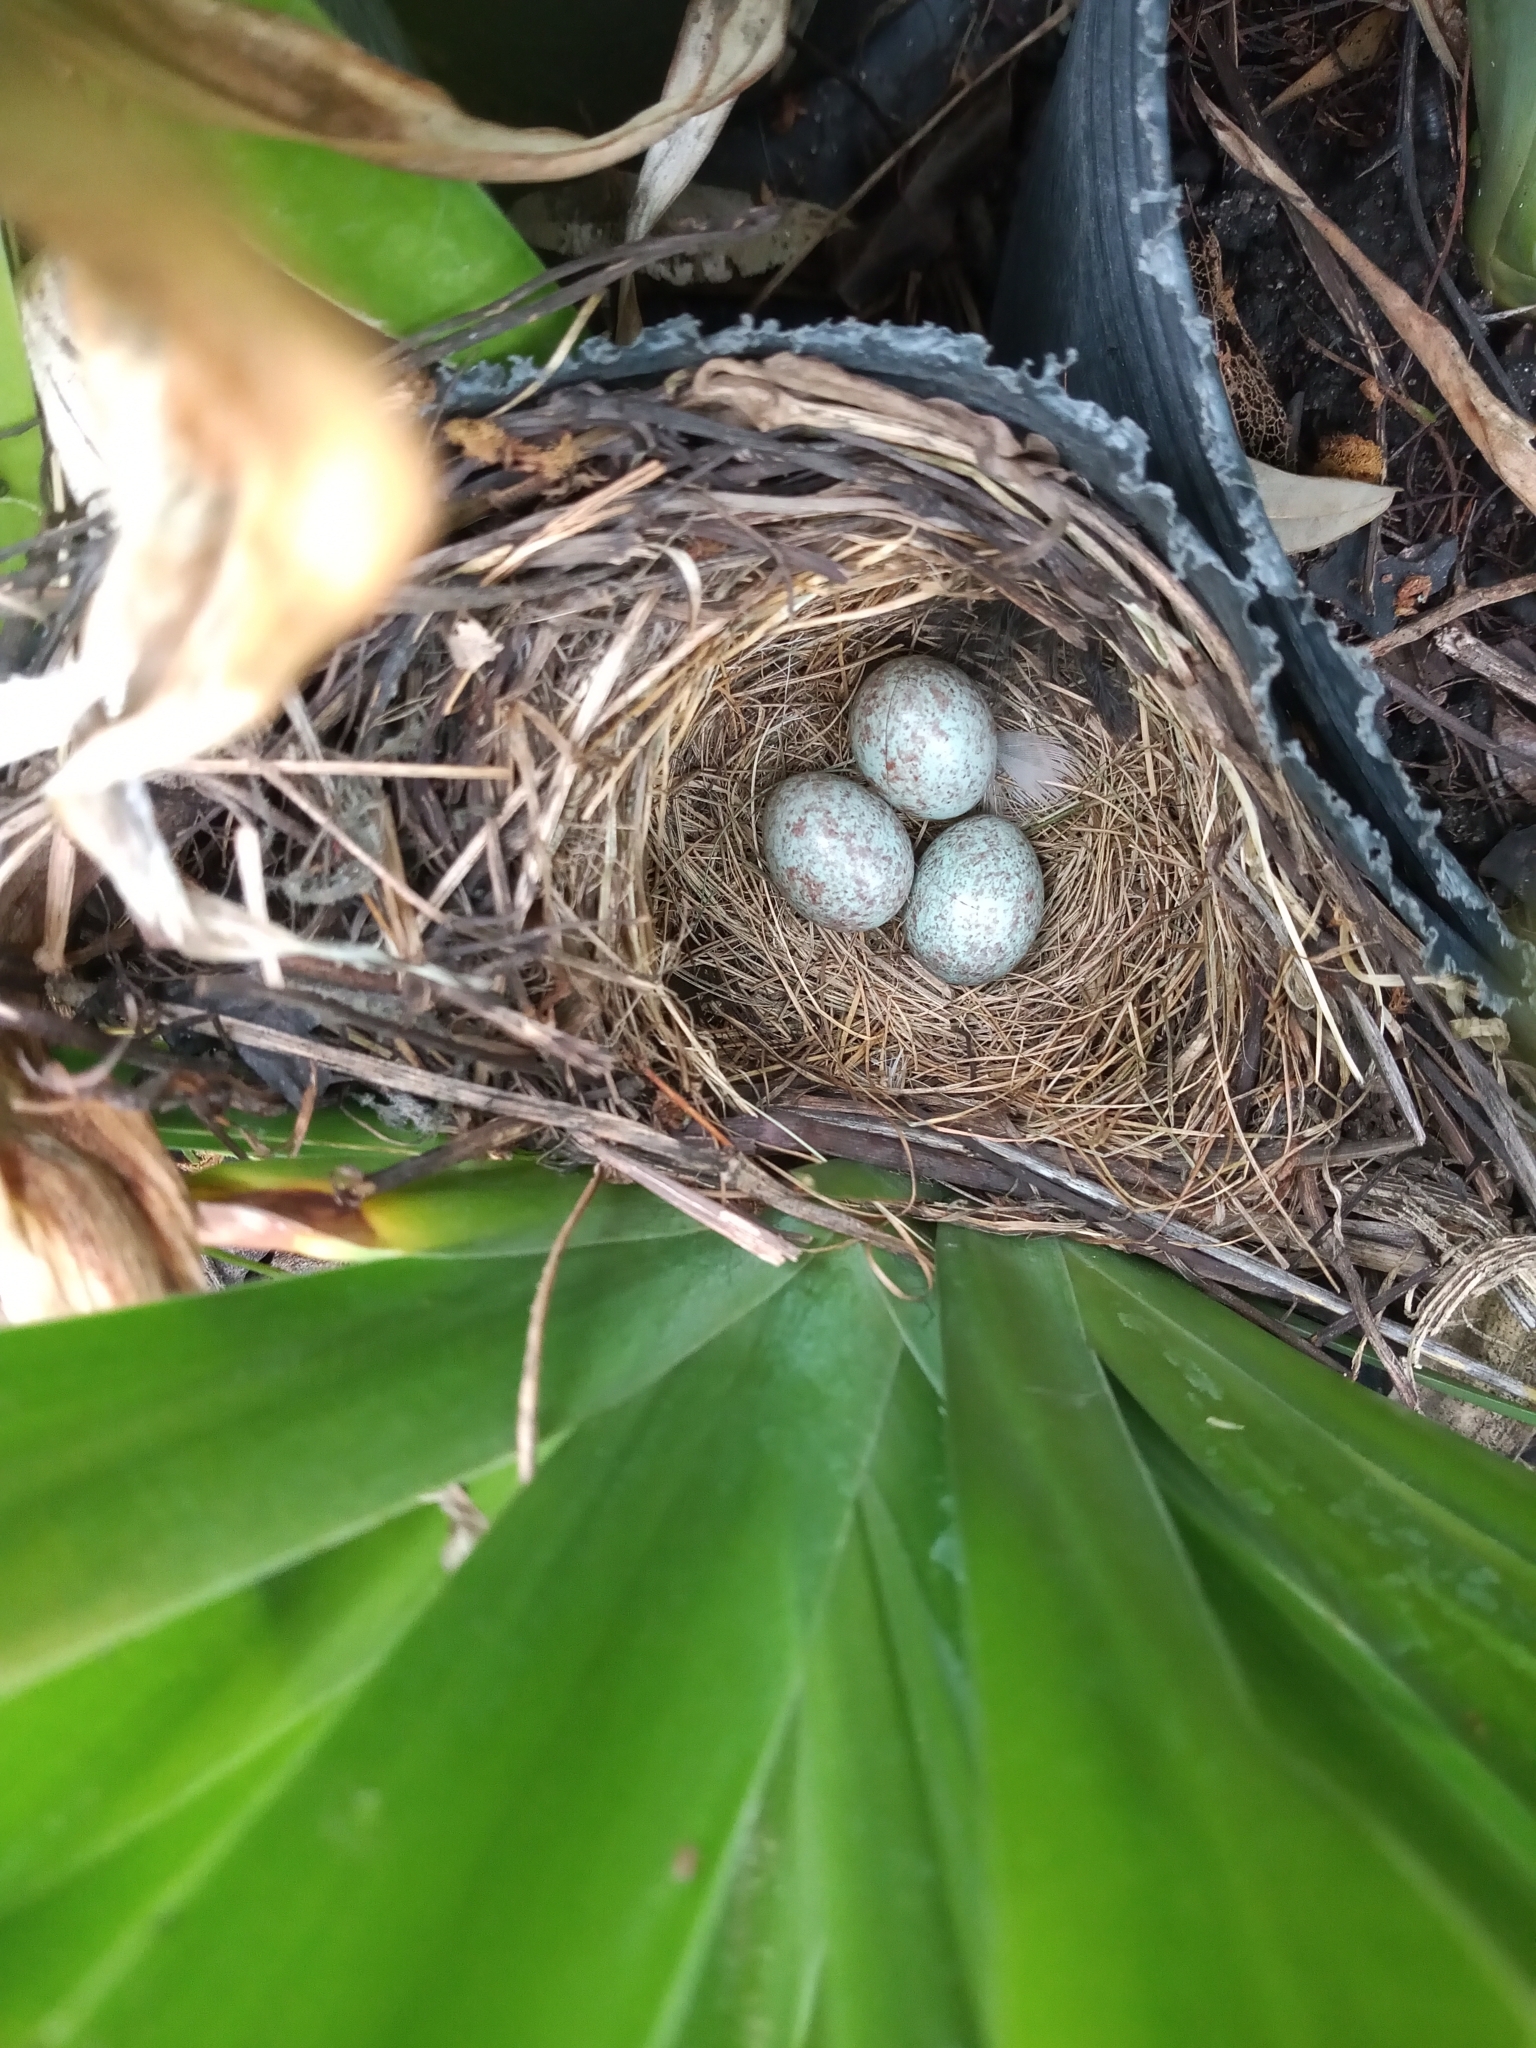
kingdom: Animalia
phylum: Chordata
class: Aves
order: Passeriformes
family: Passerellidae
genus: Zonotrichia
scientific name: Zonotrichia capensis
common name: Rufous-collared sparrow
